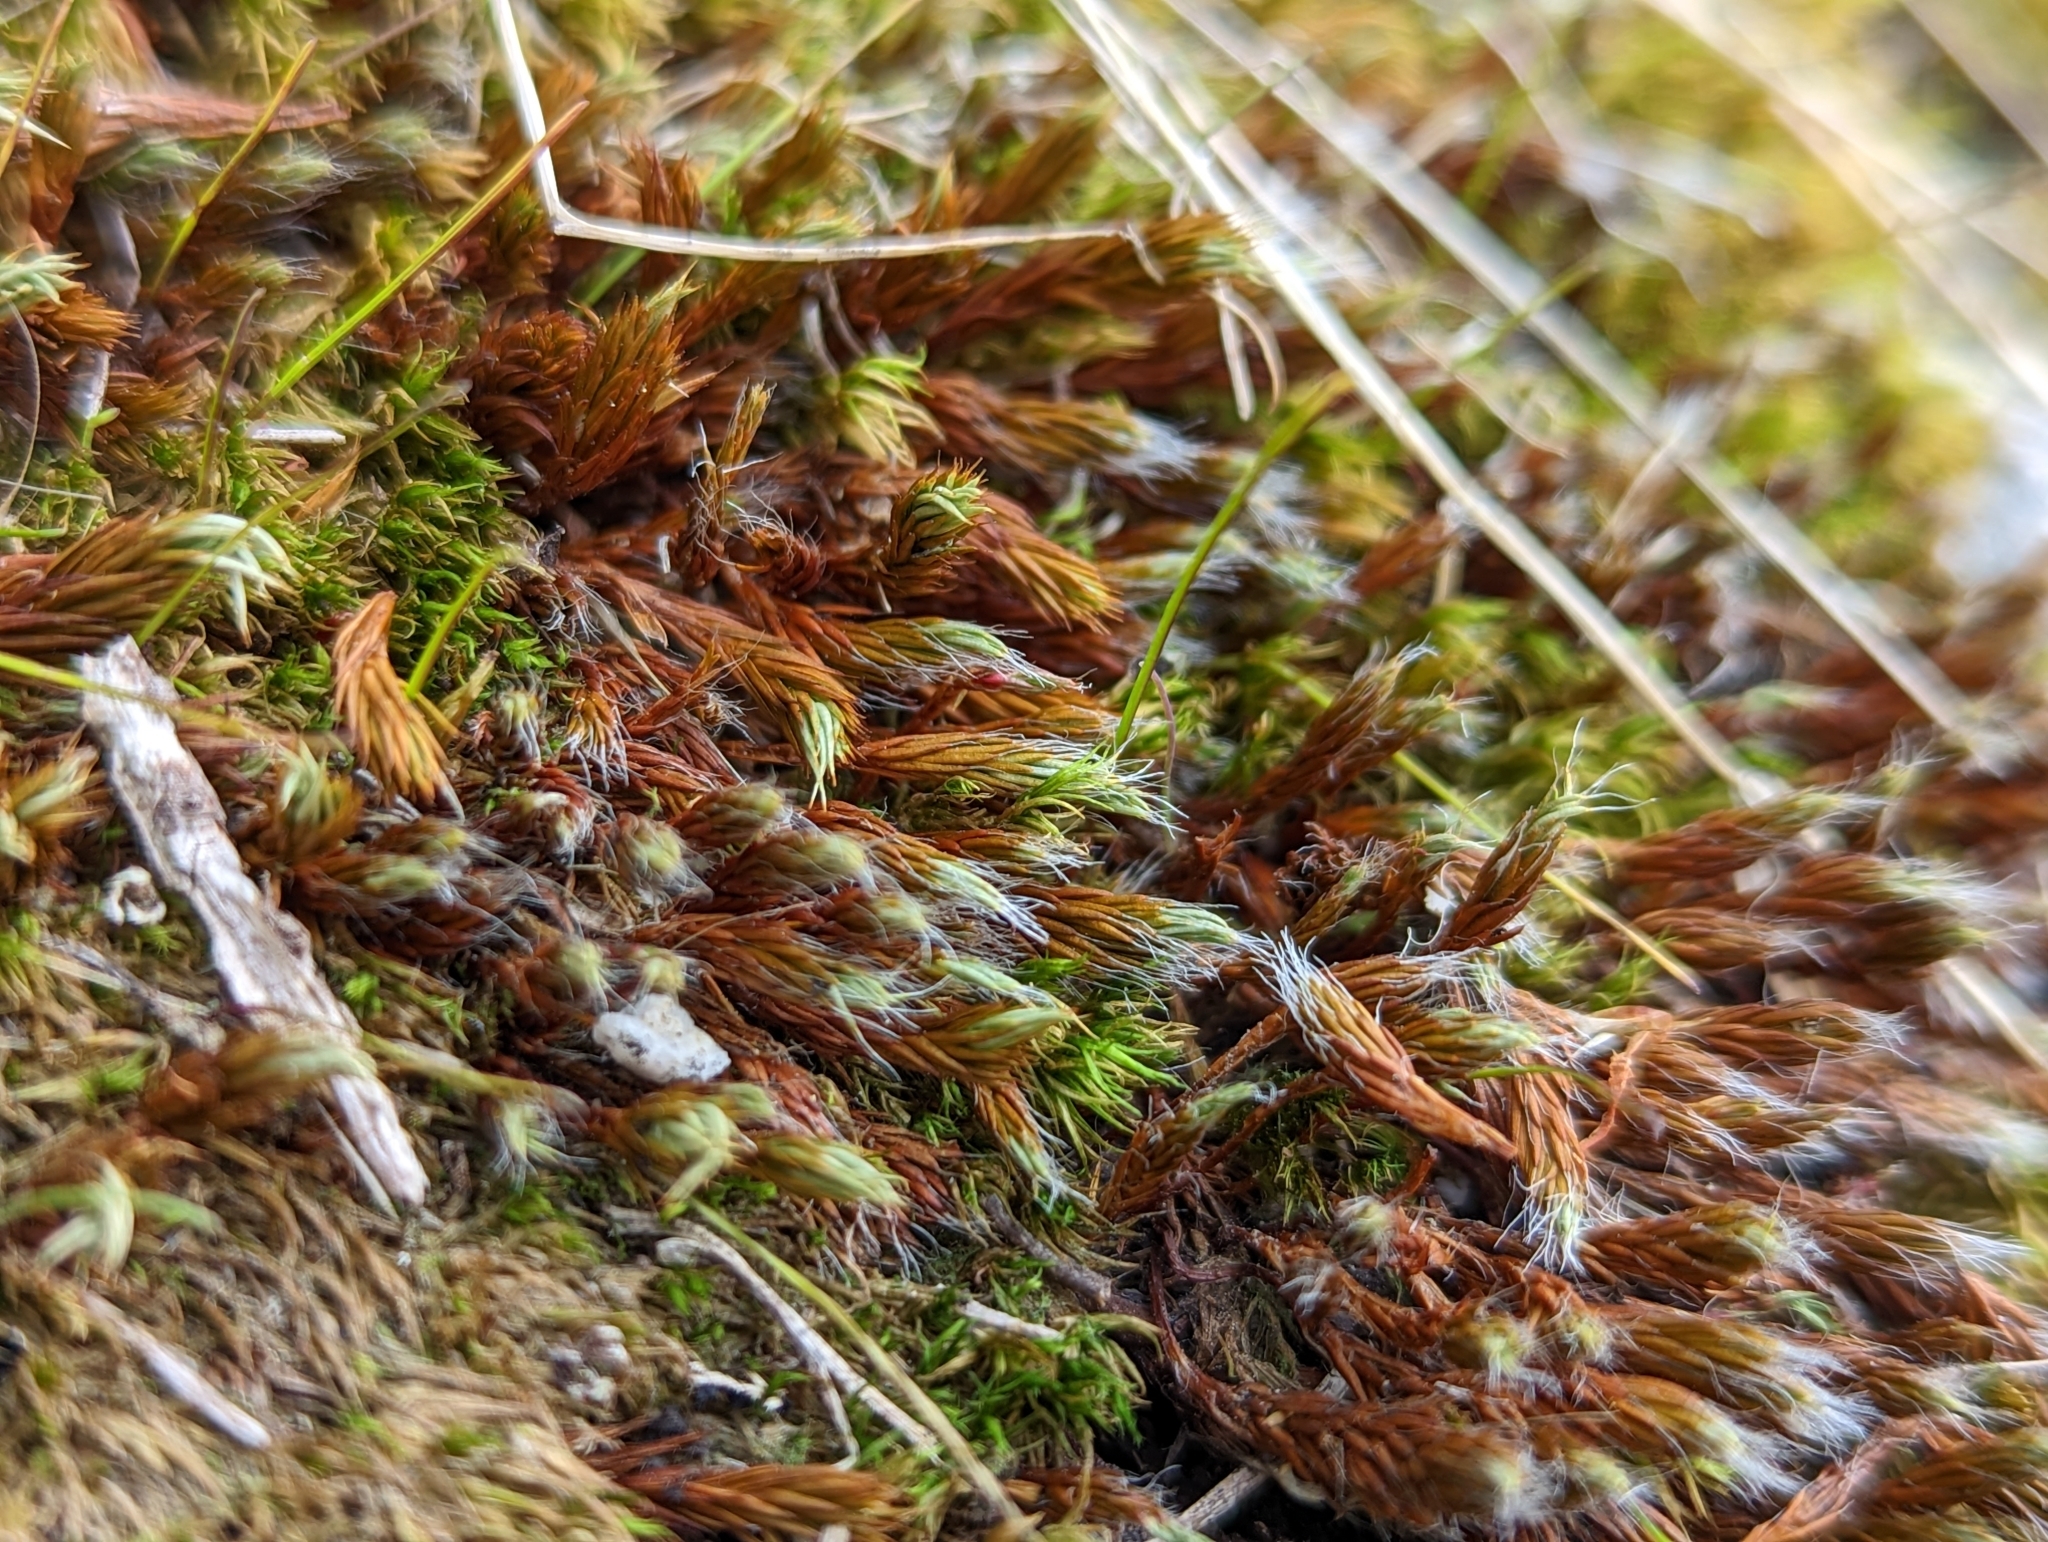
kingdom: Plantae
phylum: Bryophyta
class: Polytrichopsida
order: Polytrichales
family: Polytrichaceae
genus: Polytrichum
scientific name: Polytrichum piliferum
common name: Bristly haircap
